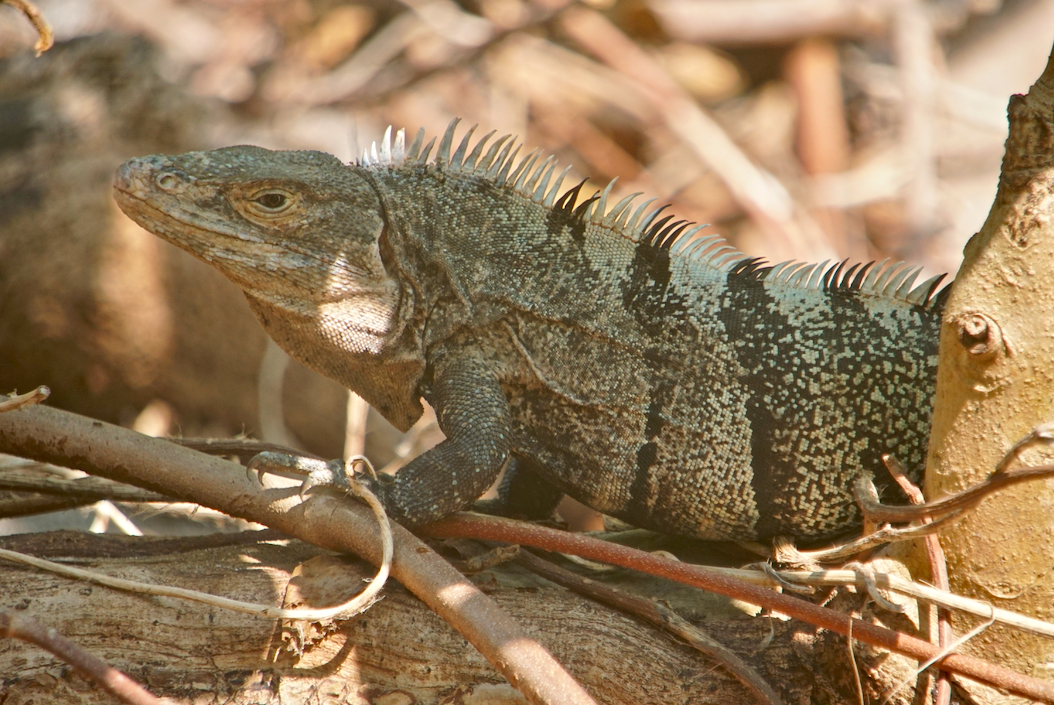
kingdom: Animalia
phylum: Chordata
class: Squamata
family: Iguanidae
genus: Ctenosaura
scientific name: Ctenosaura similis
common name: Black spiny-tailed iguana
